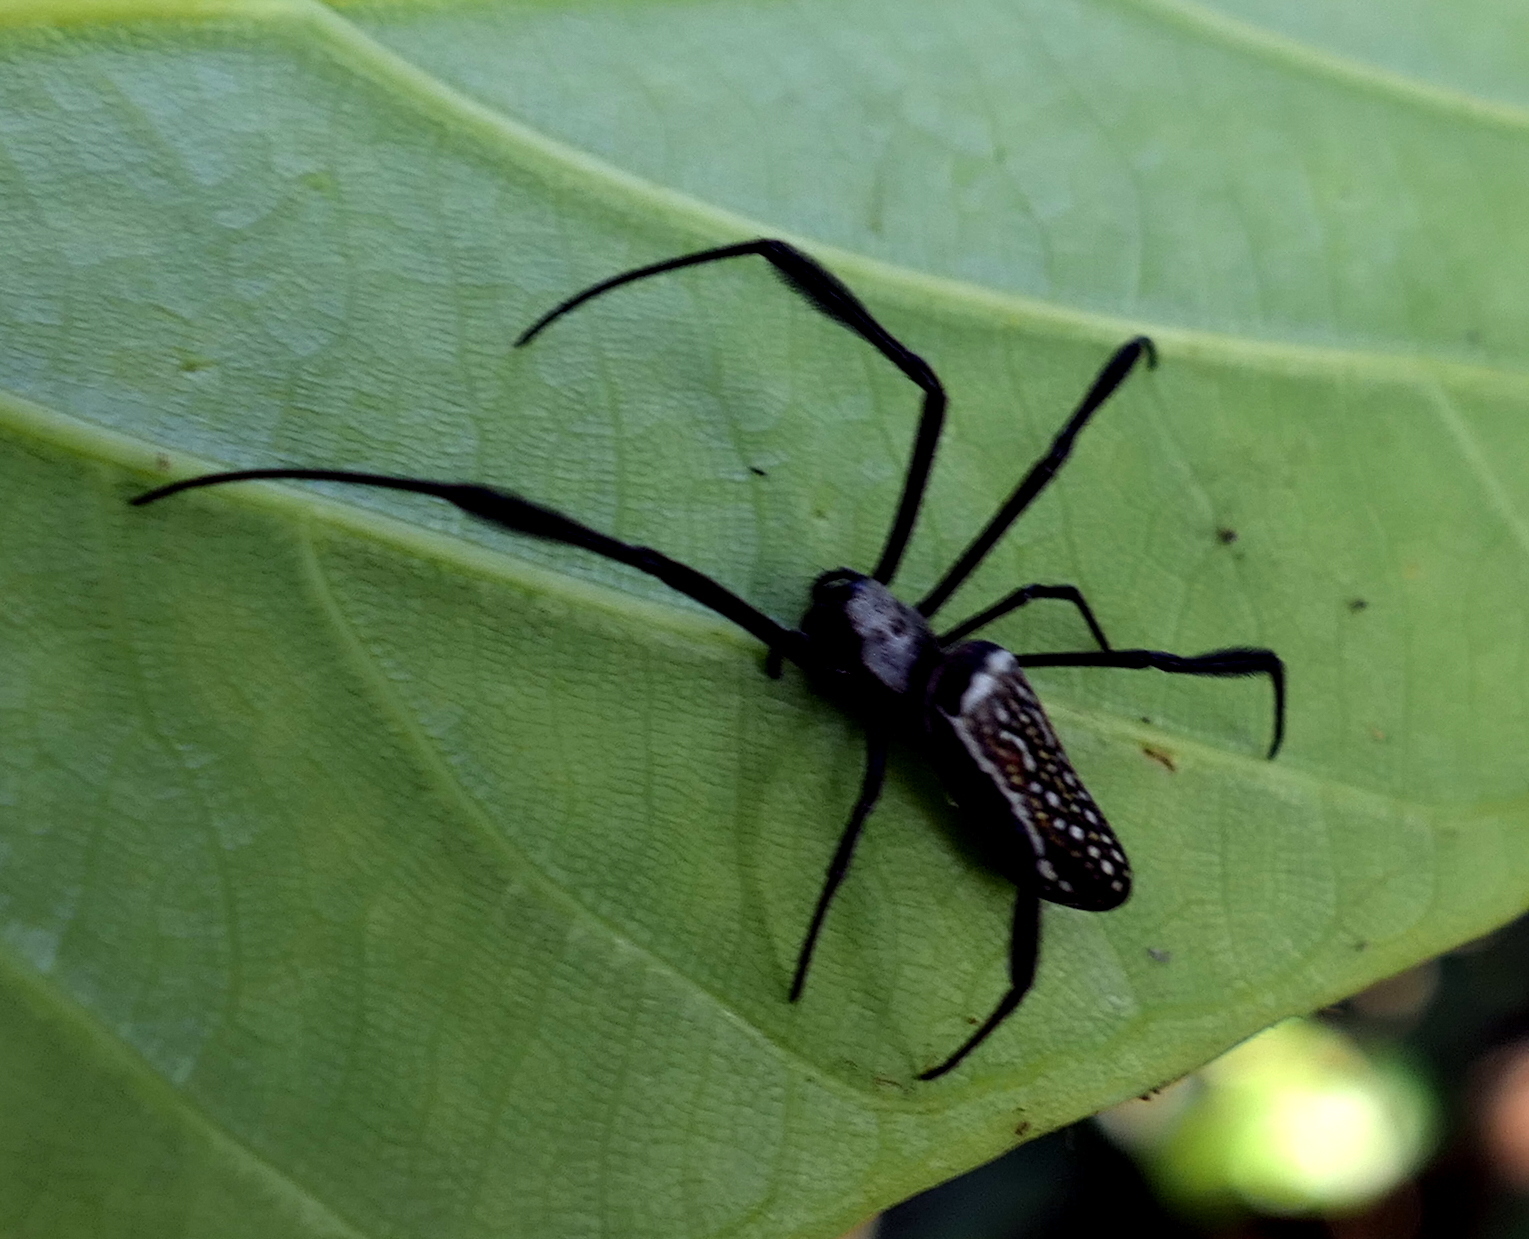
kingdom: Animalia
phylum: Arthropoda
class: Arachnida
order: Araneae
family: Araneidae
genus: Trichonephila
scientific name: Trichonephila clavipes
